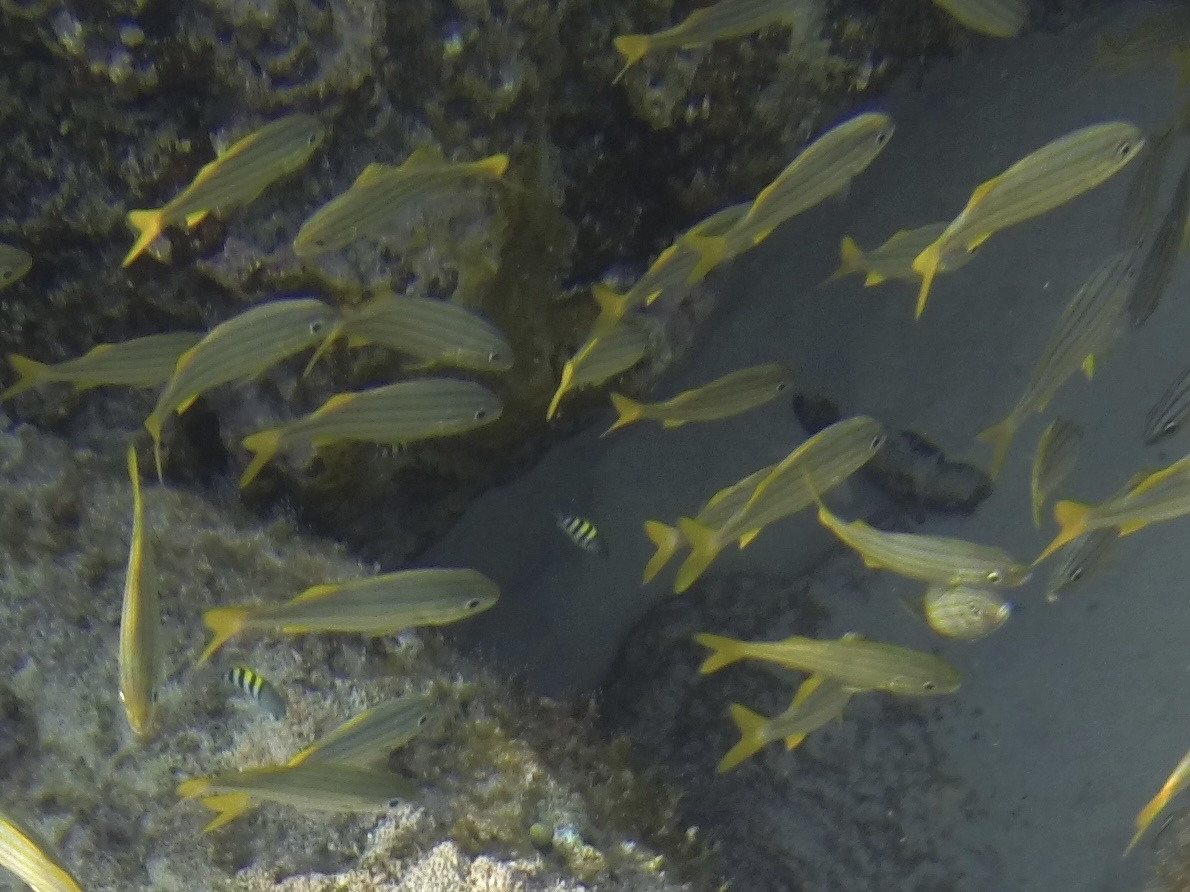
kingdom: Animalia
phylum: Chordata
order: Perciformes
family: Haemulidae
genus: Haemulon
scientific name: Haemulon chrysargyreum
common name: Smallmouth grunt
